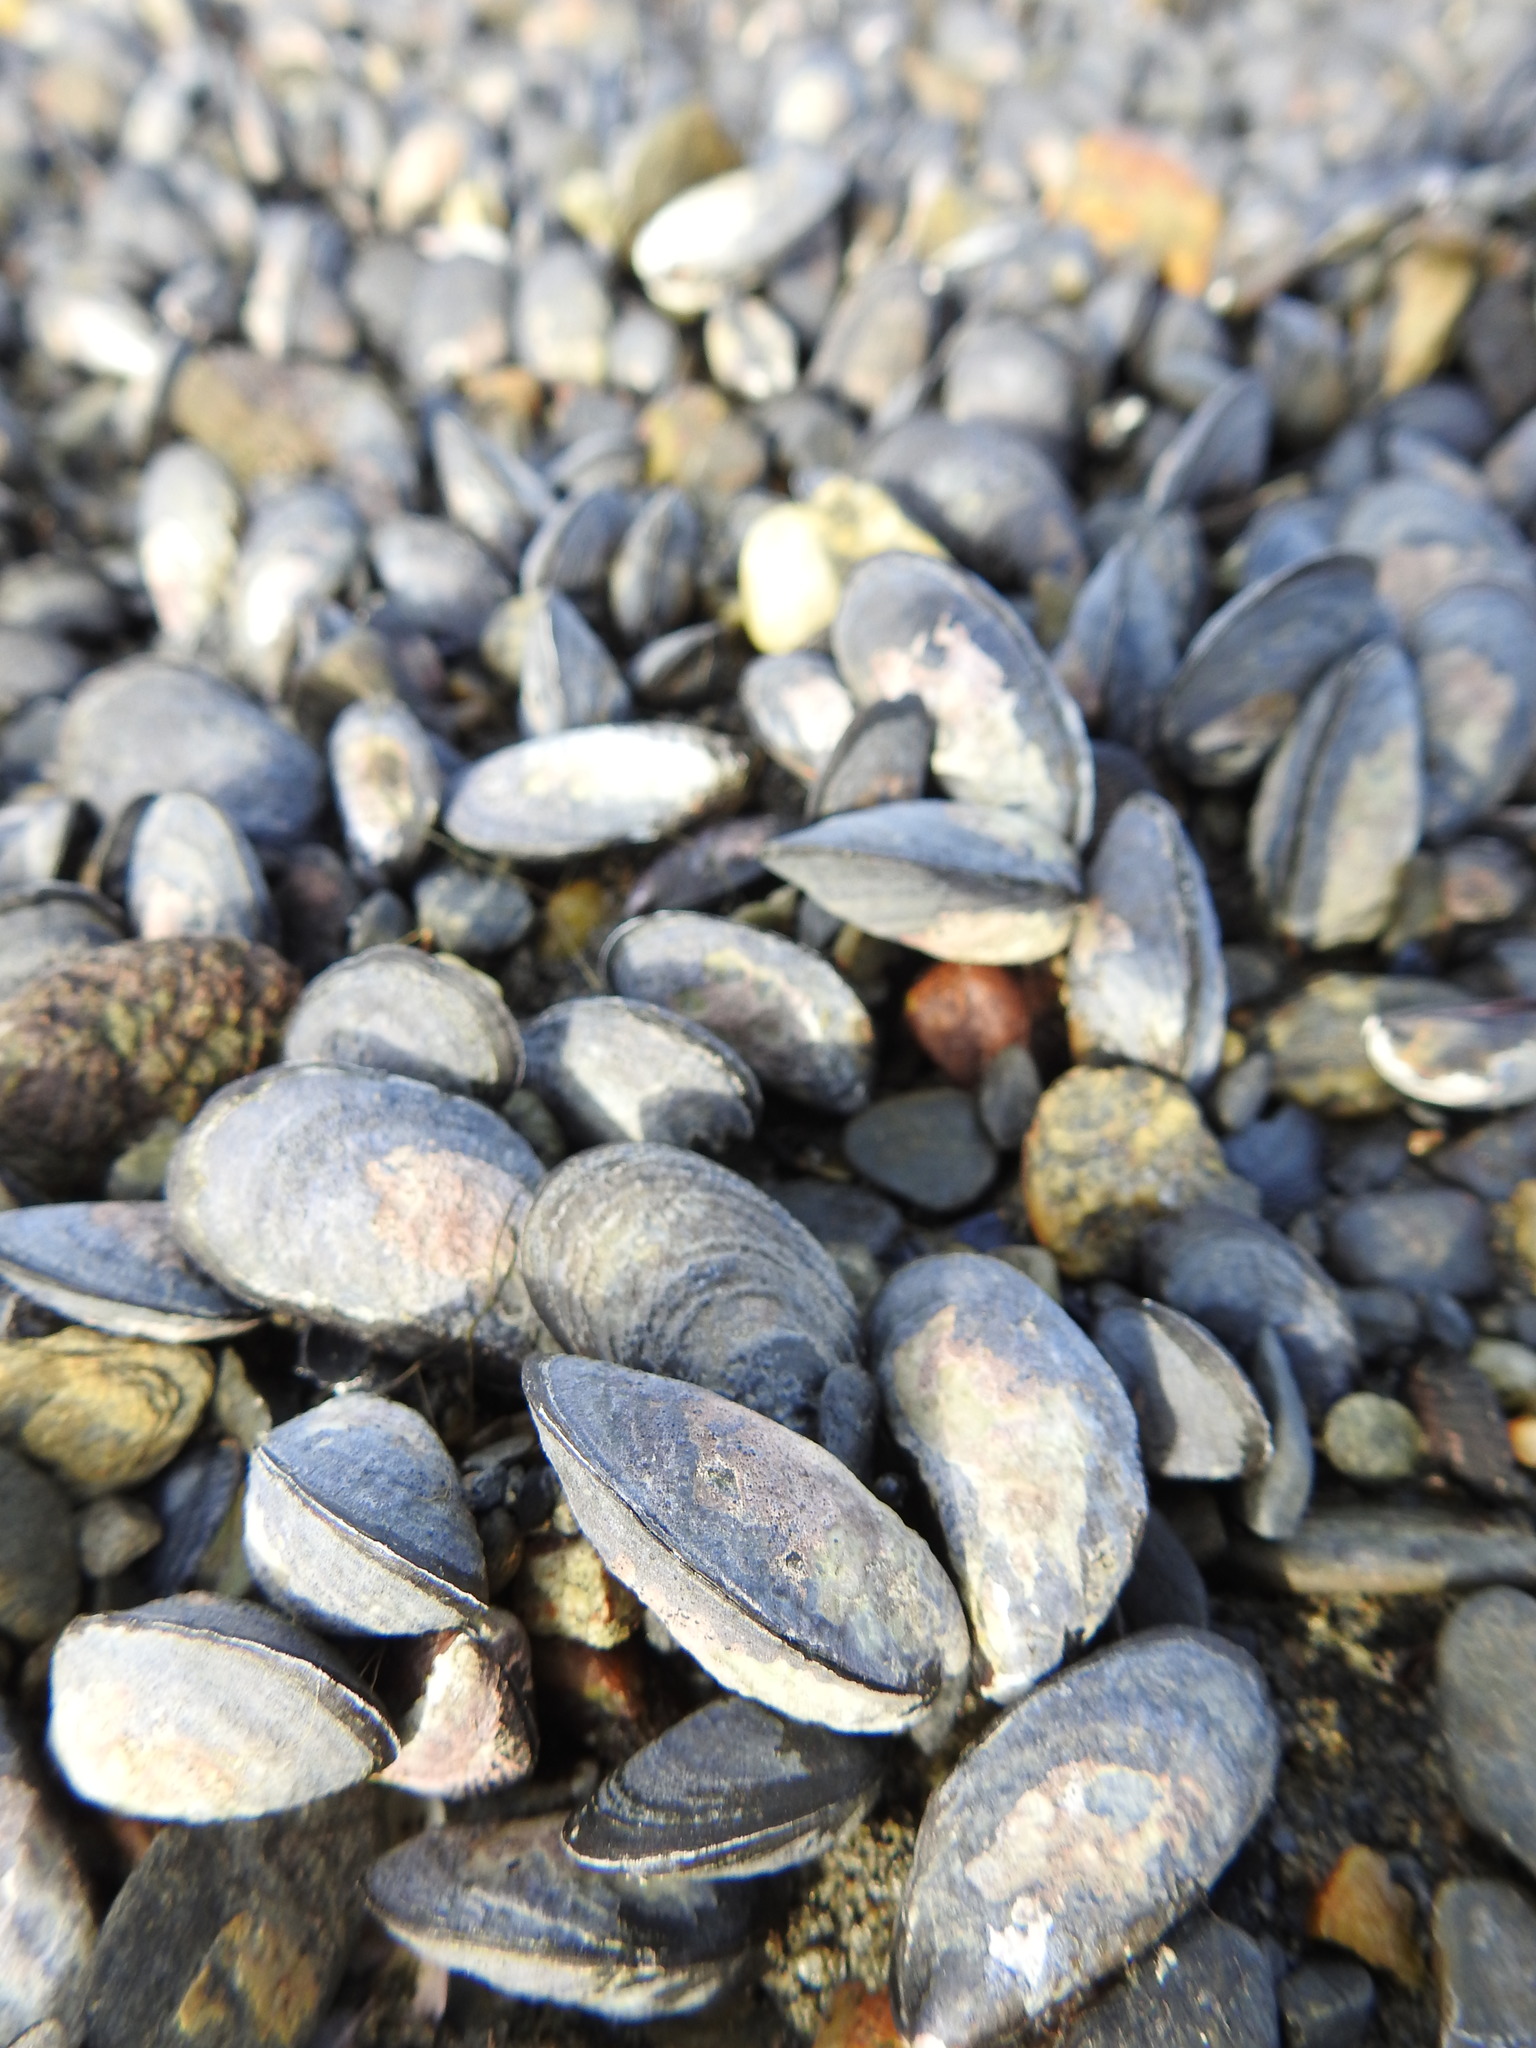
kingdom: Animalia
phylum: Mollusca
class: Bivalvia
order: Mytilida
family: Mytilidae
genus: Mytilus
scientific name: Mytilus chilensis
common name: Chilean mussel
